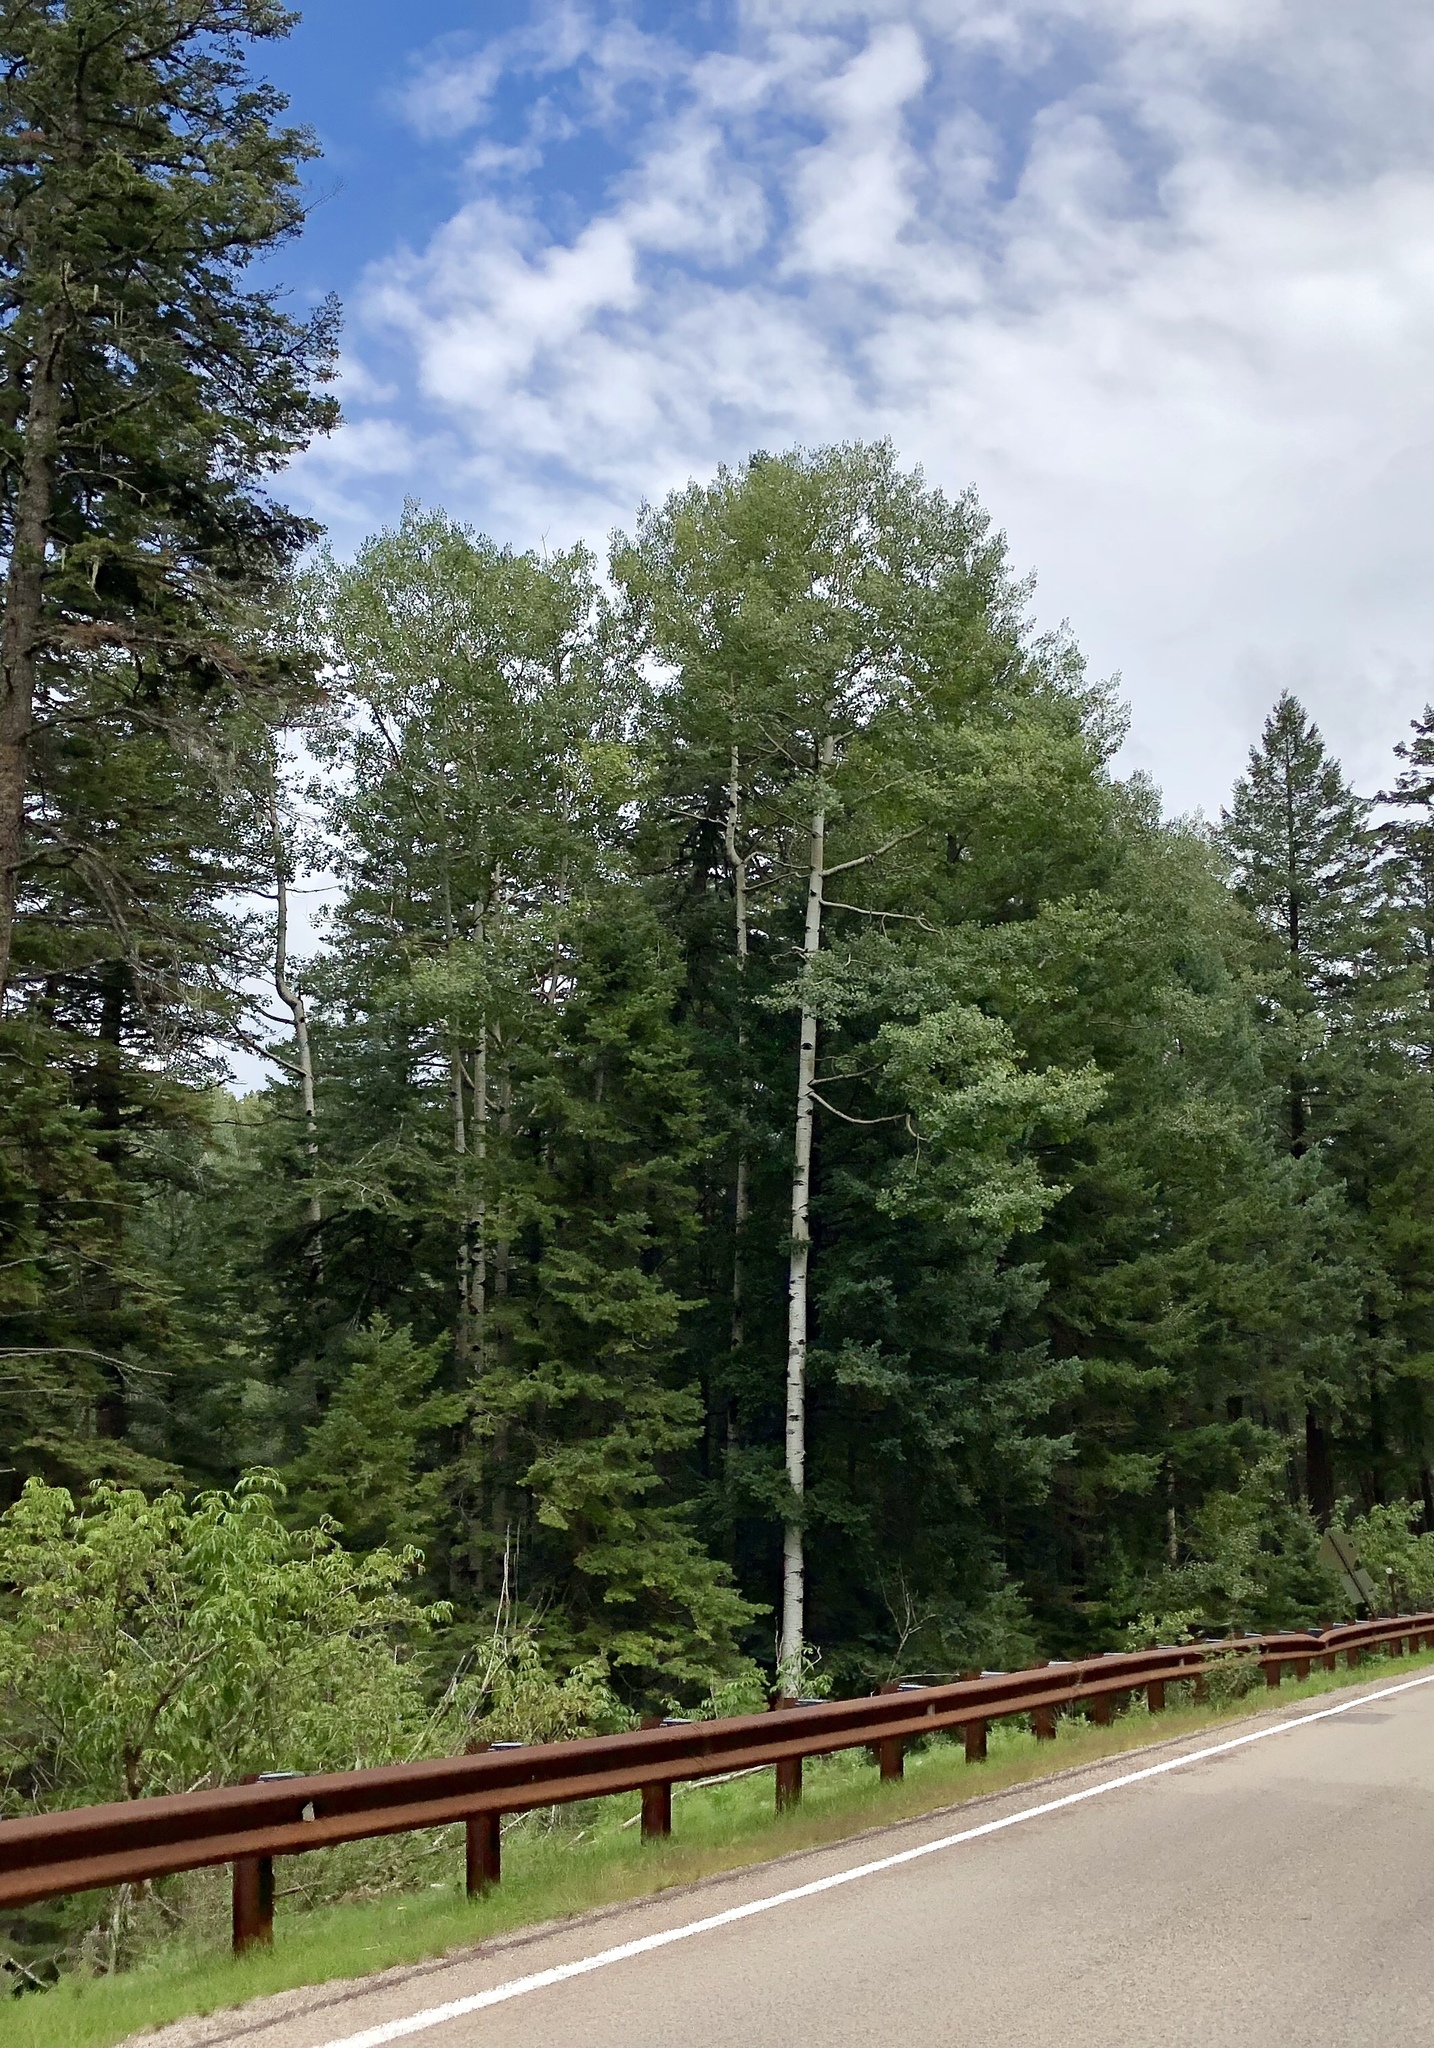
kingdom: Plantae
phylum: Tracheophyta
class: Magnoliopsida
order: Malpighiales
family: Salicaceae
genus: Populus
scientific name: Populus tremuloides
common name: Quaking aspen
